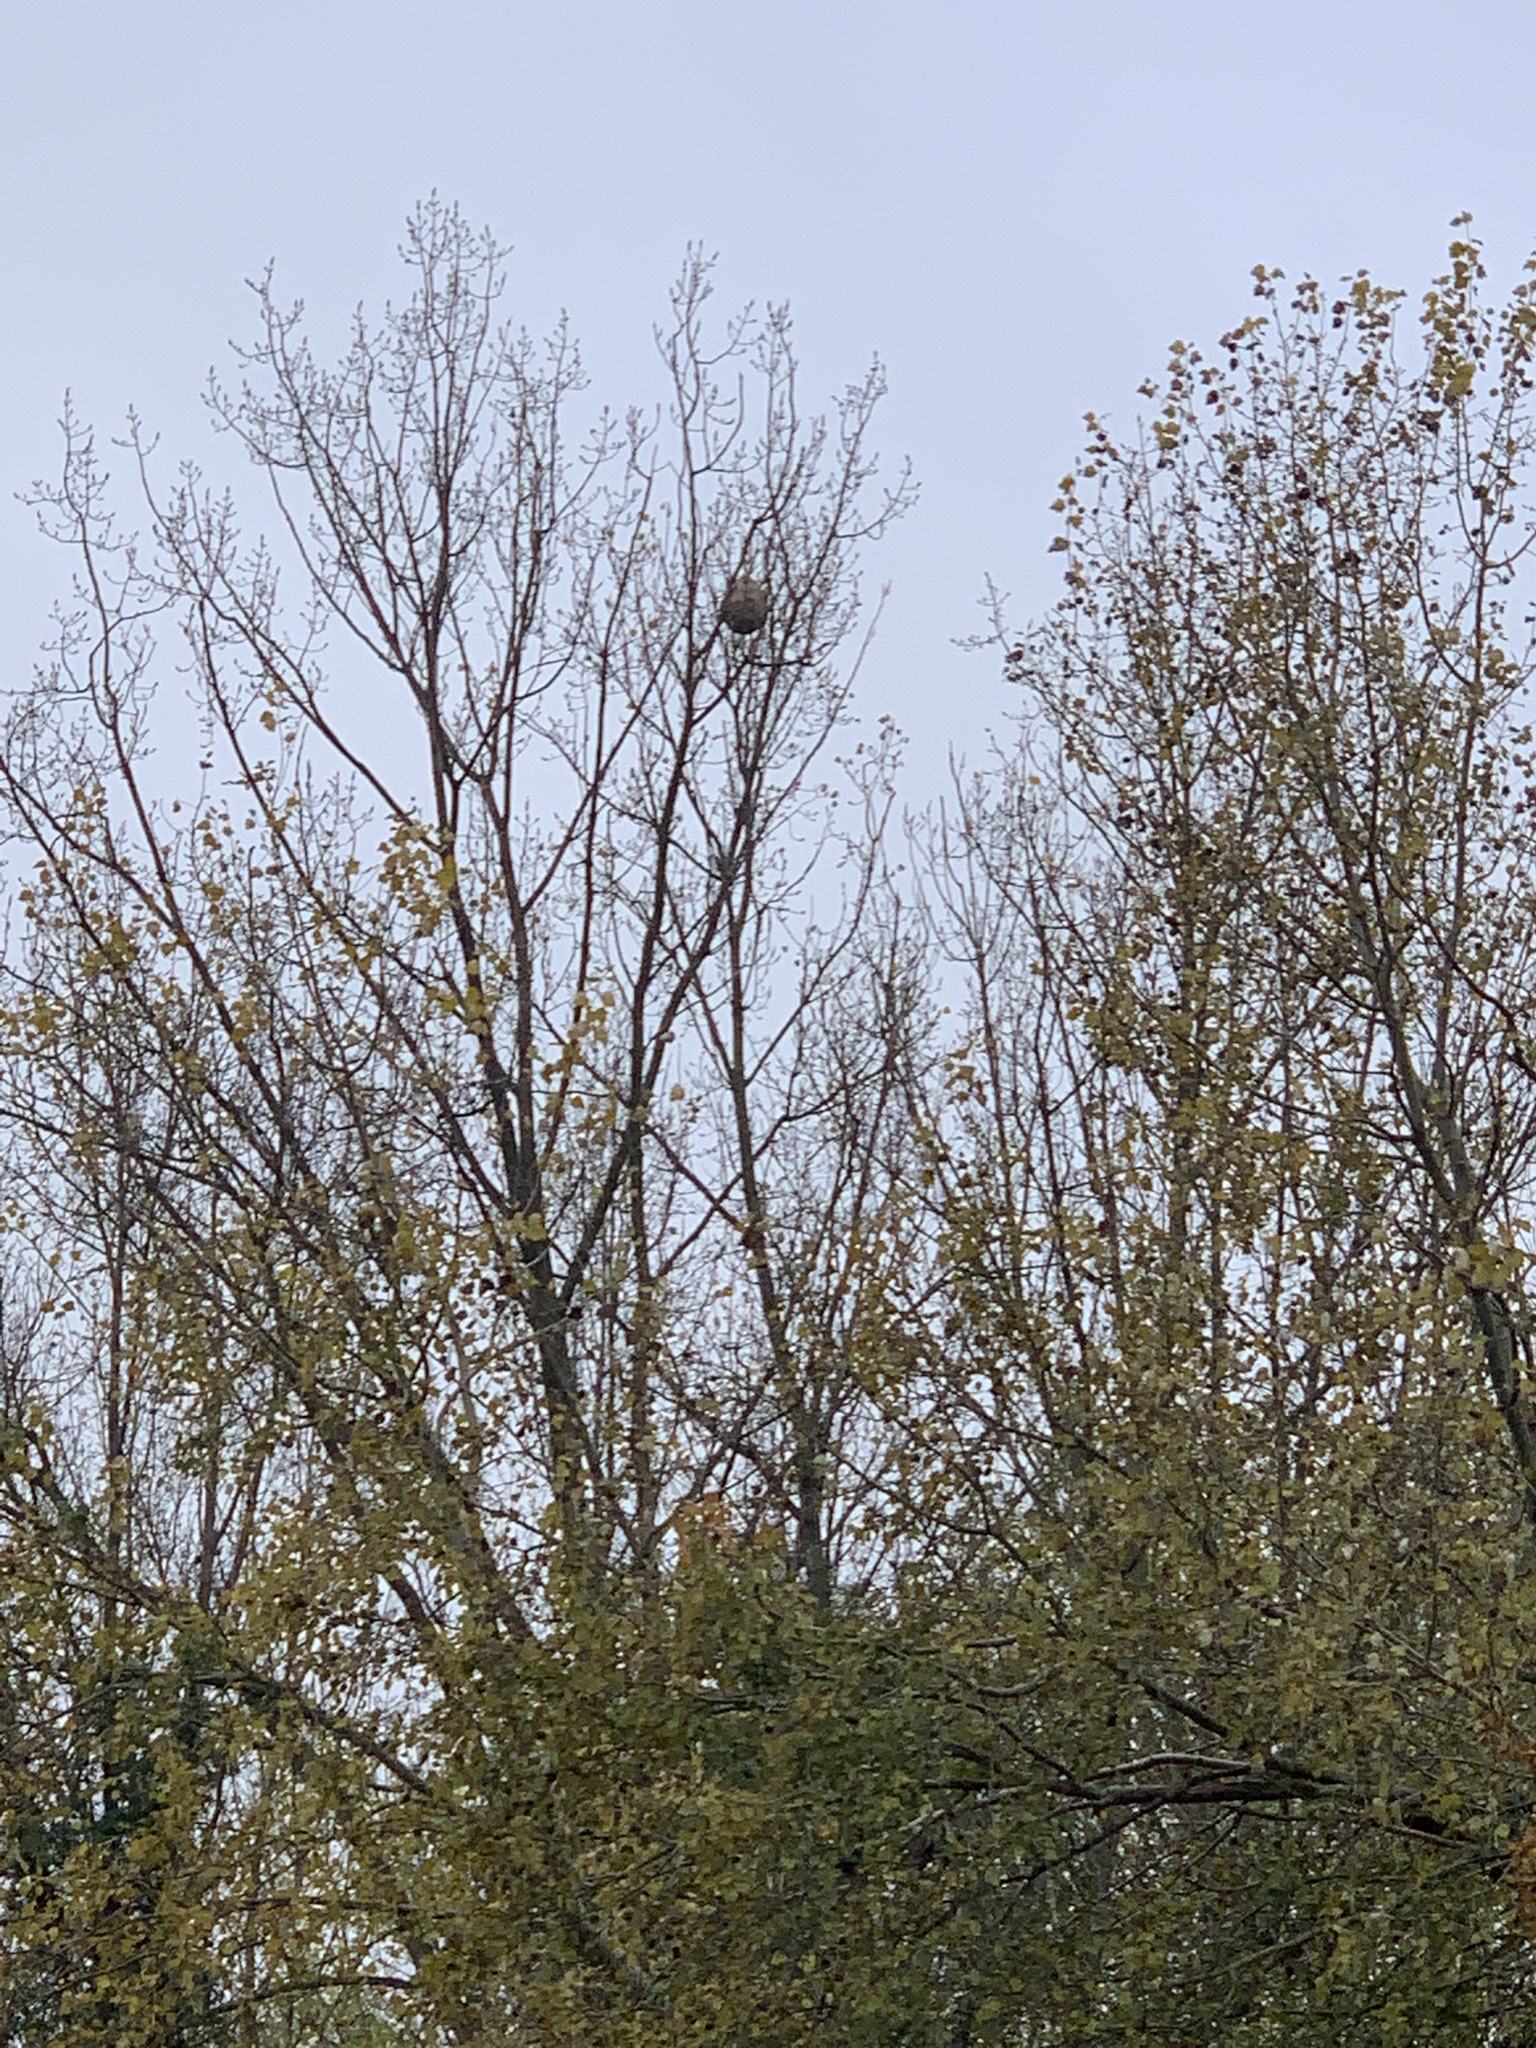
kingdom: Animalia
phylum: Arthropoda
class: Insecta
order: Hymenoptera
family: Vespidae
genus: Vespa
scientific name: Vespa velutina
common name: Asian hornet
